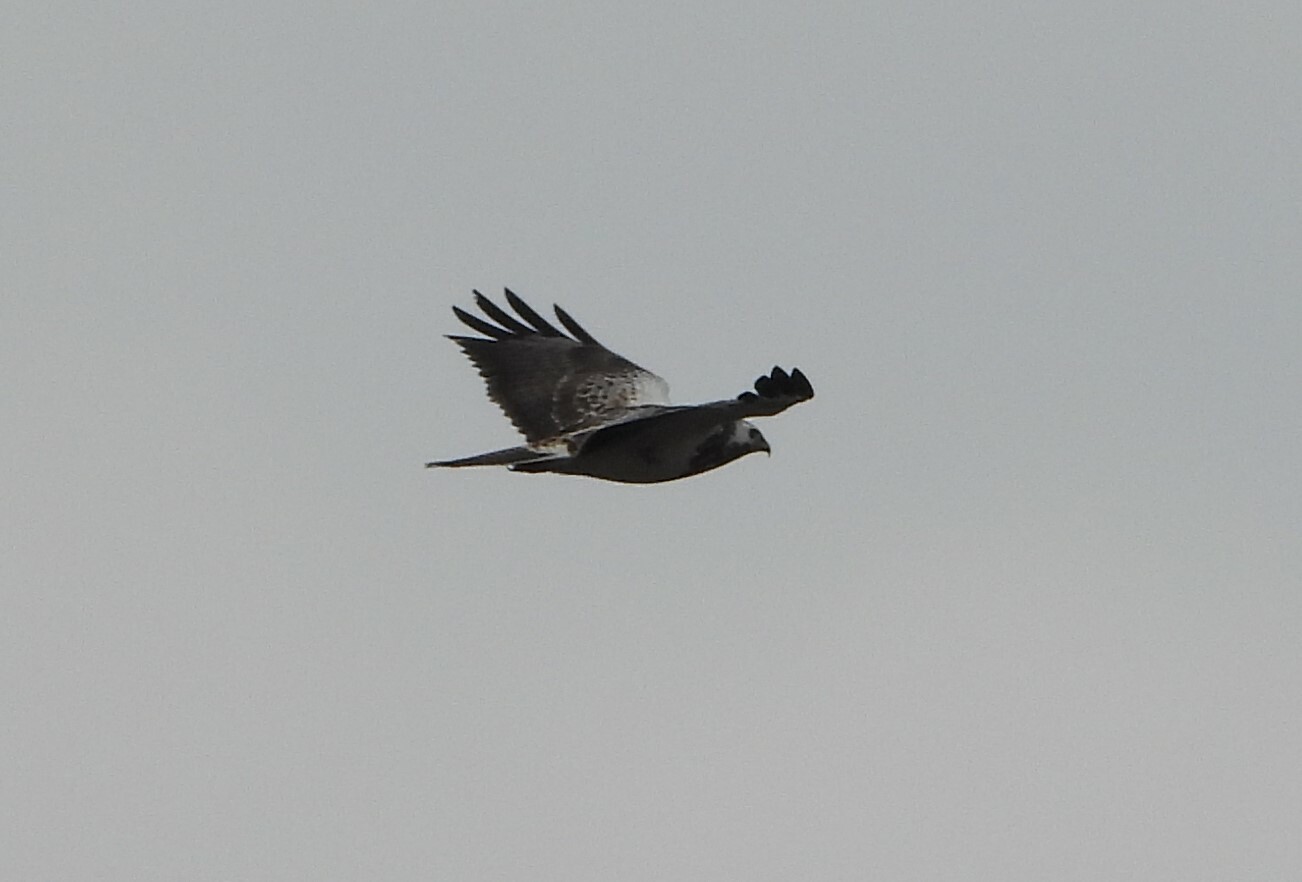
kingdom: Animalia
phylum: Chordata
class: Aves
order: Accipitriformes
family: Accipitridae
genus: Buteo
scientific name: Buteo buteo
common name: Common buzzard
